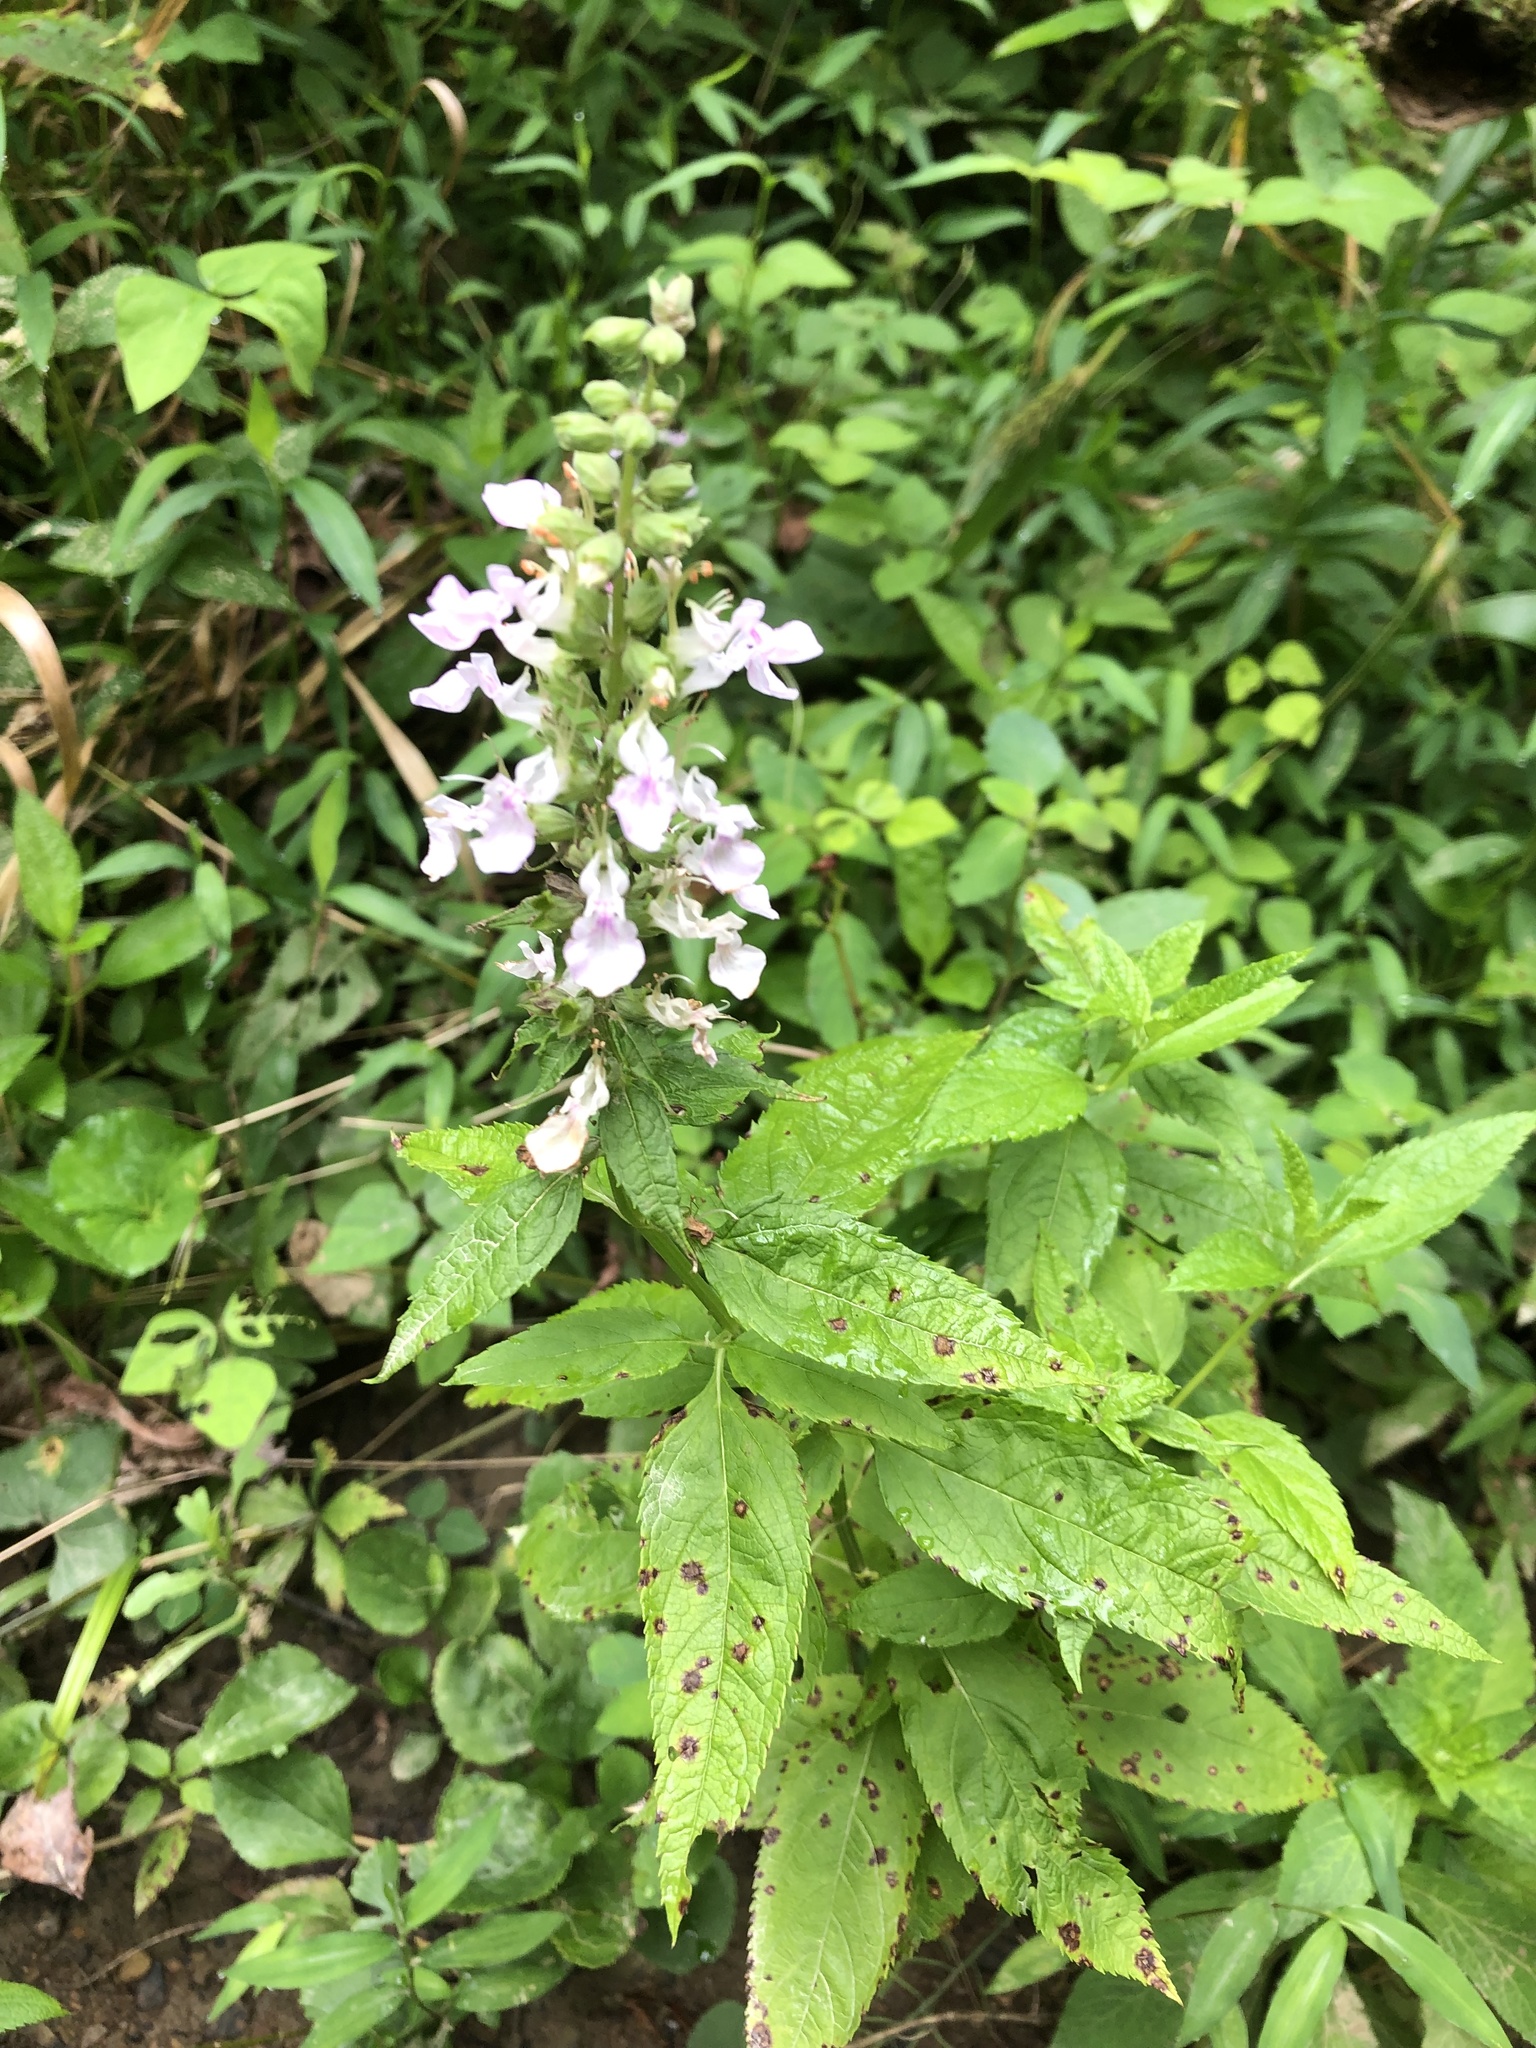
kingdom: Plantae
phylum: Tracheophyta
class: Magnoliopsida
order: Lamiales
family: Lamiaceae
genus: Teucrium
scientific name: Teucrium canadense
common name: American germander
